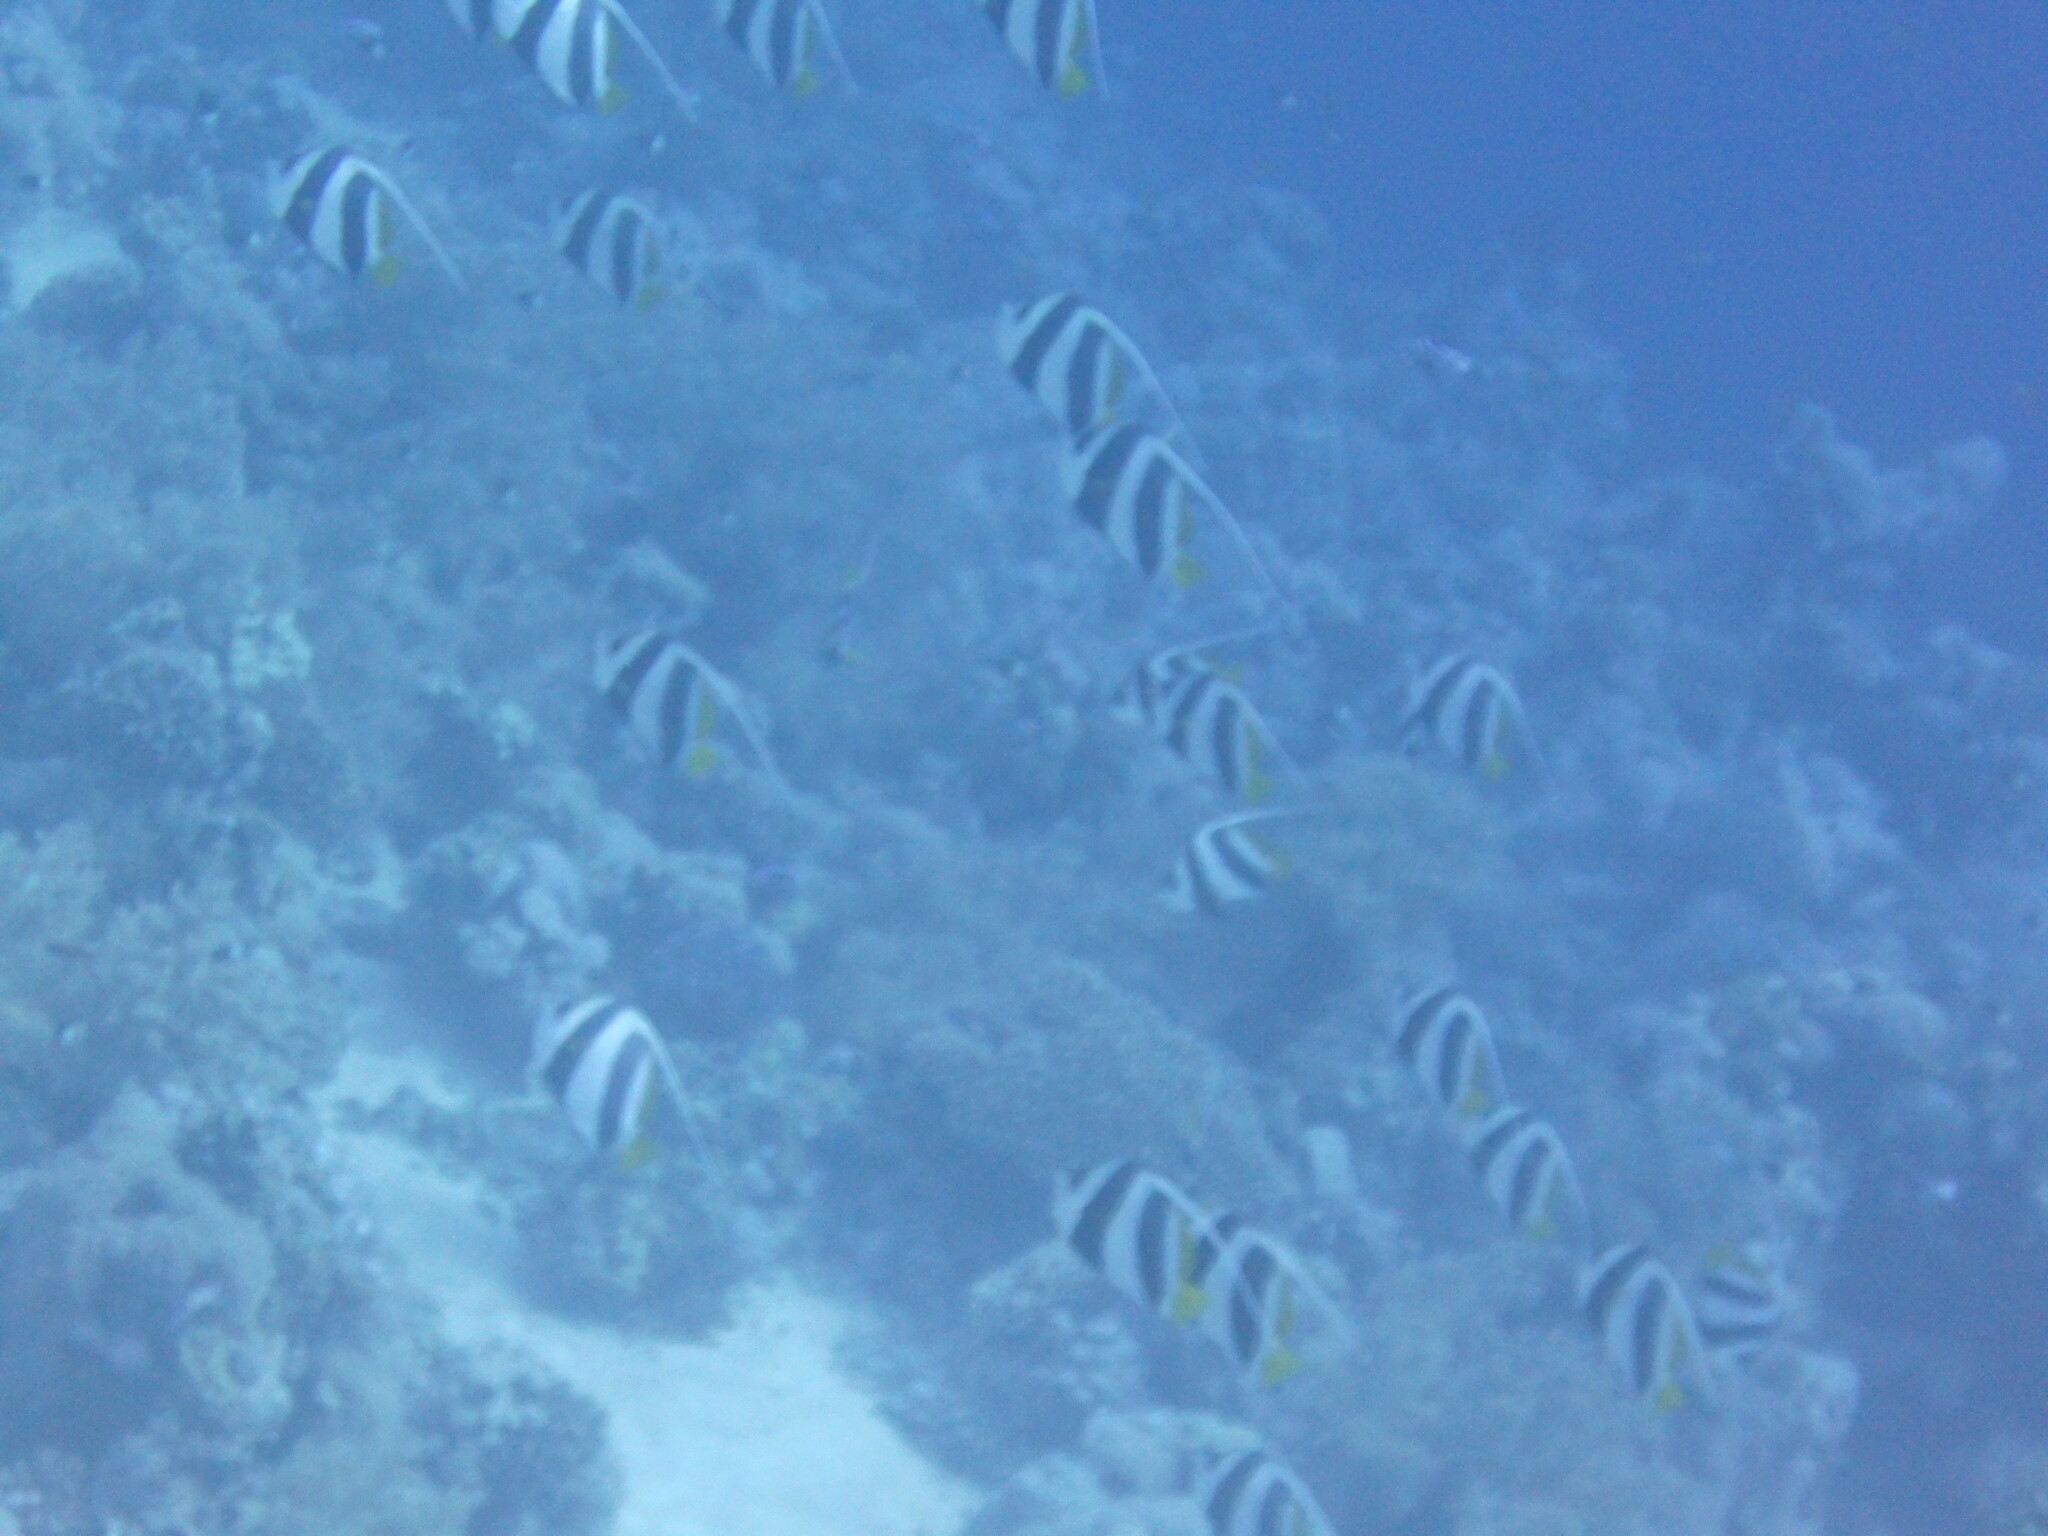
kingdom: Animalia
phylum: Chordata
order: Perciformes
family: Chaetodontidae
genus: Heniochus
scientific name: Heniochus diphreutes
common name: Pennantfish
